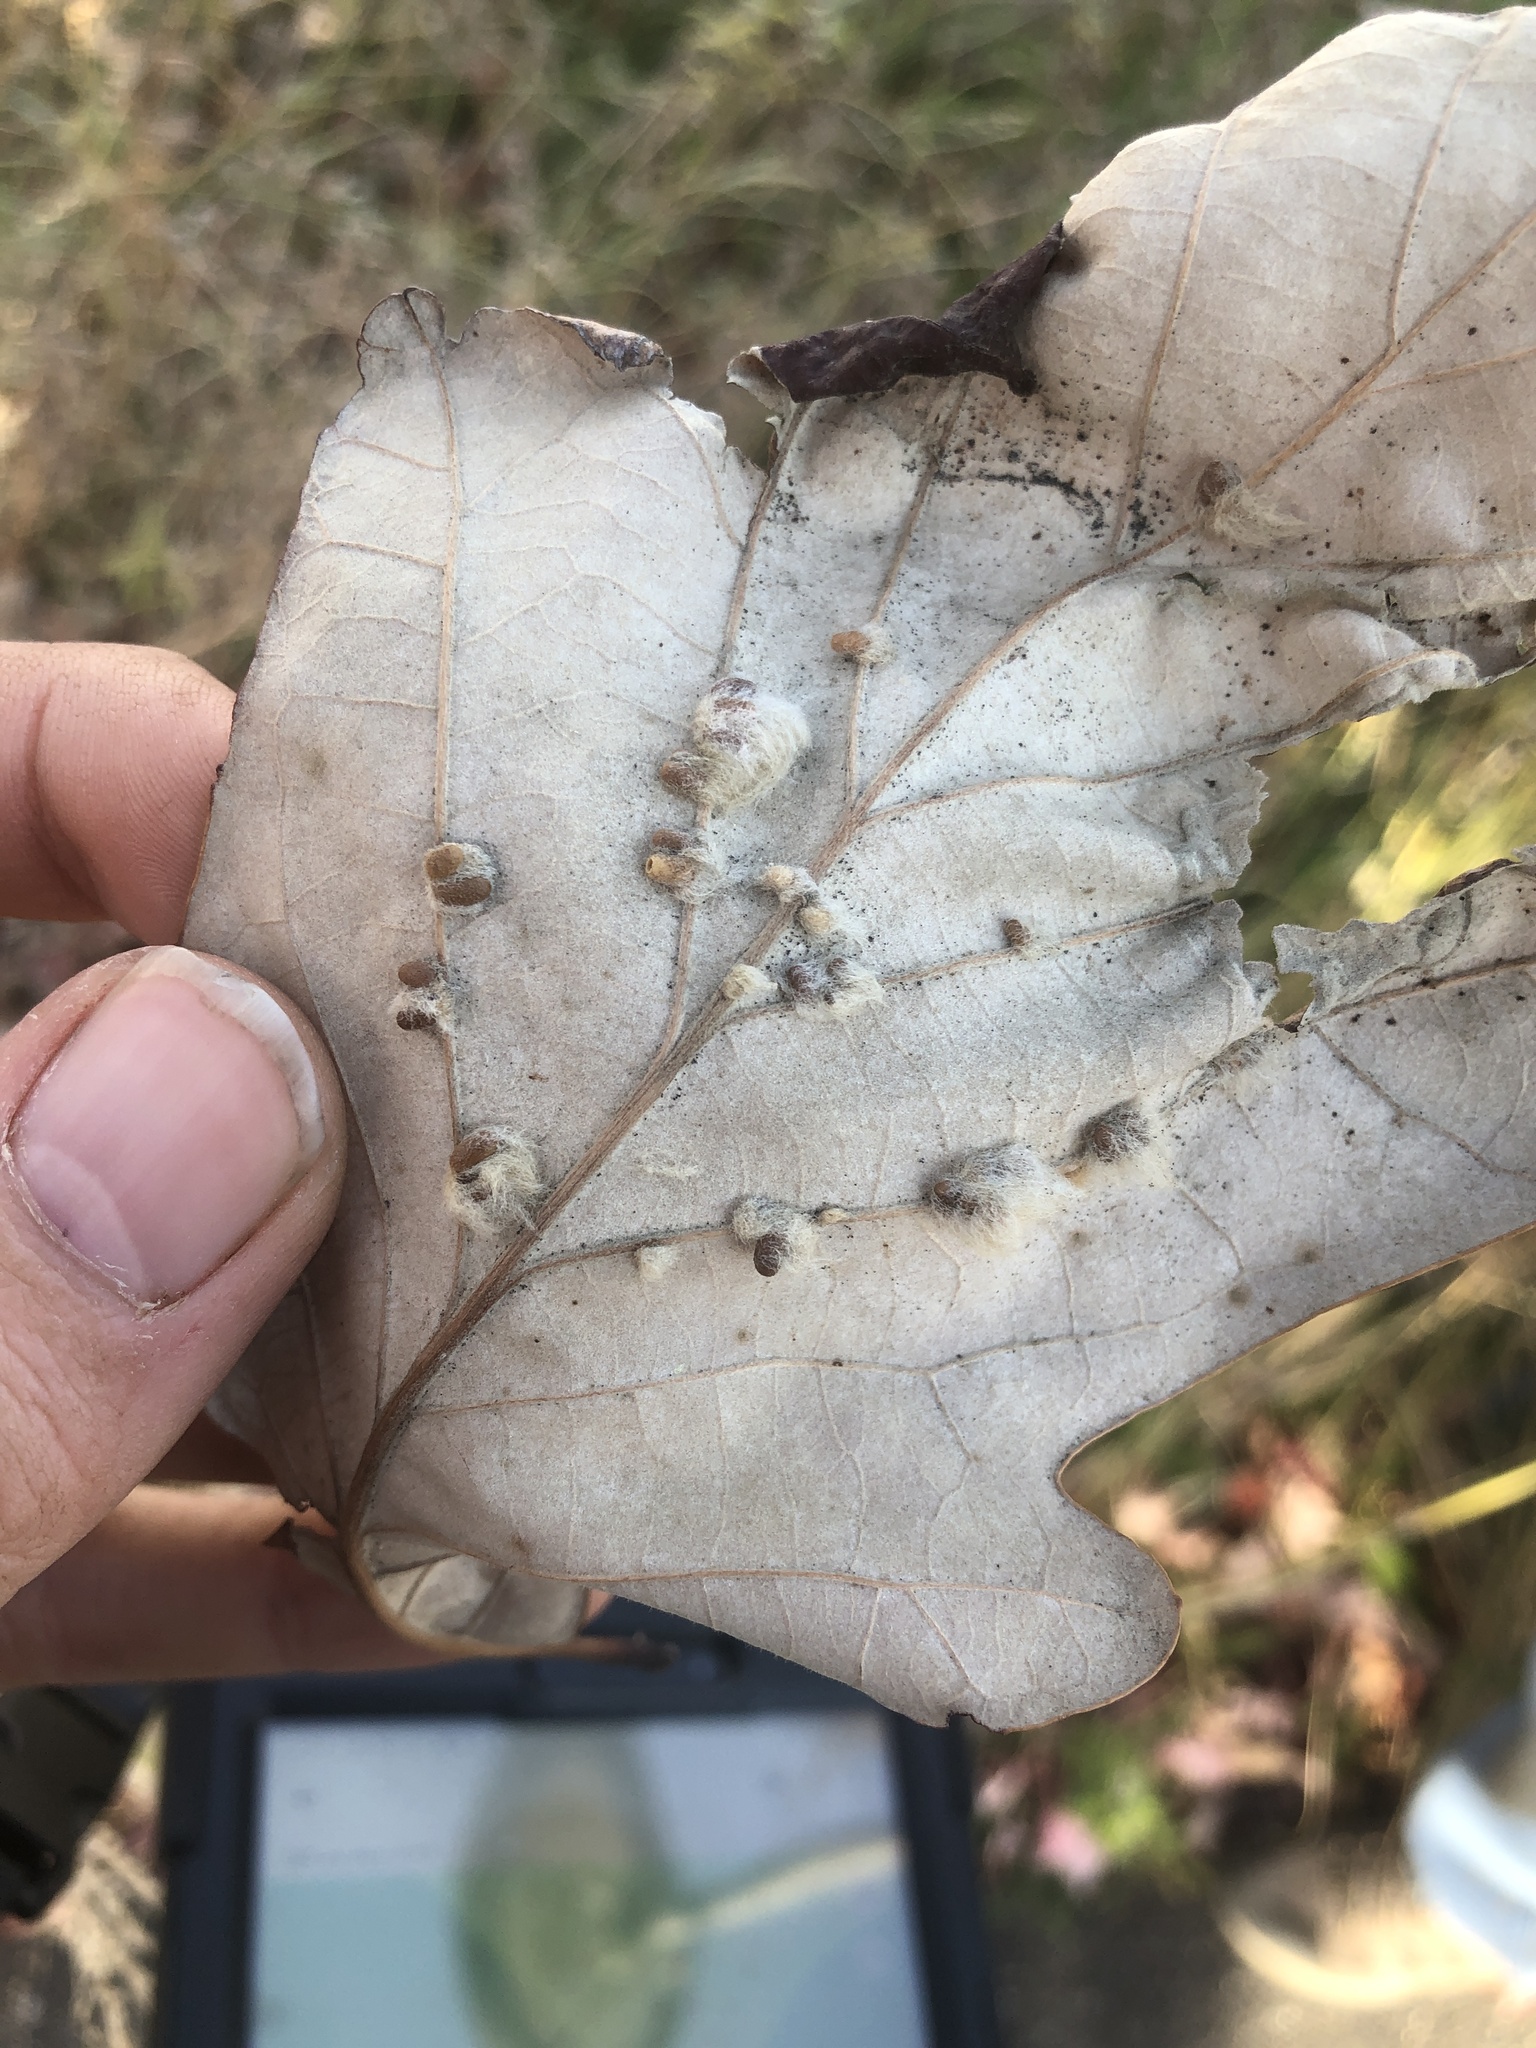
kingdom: Animalia
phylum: Arthropoda
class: Insecta
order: Hymenoptera
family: Cynipidae
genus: Andricus
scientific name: Andricus Druon ignotum
